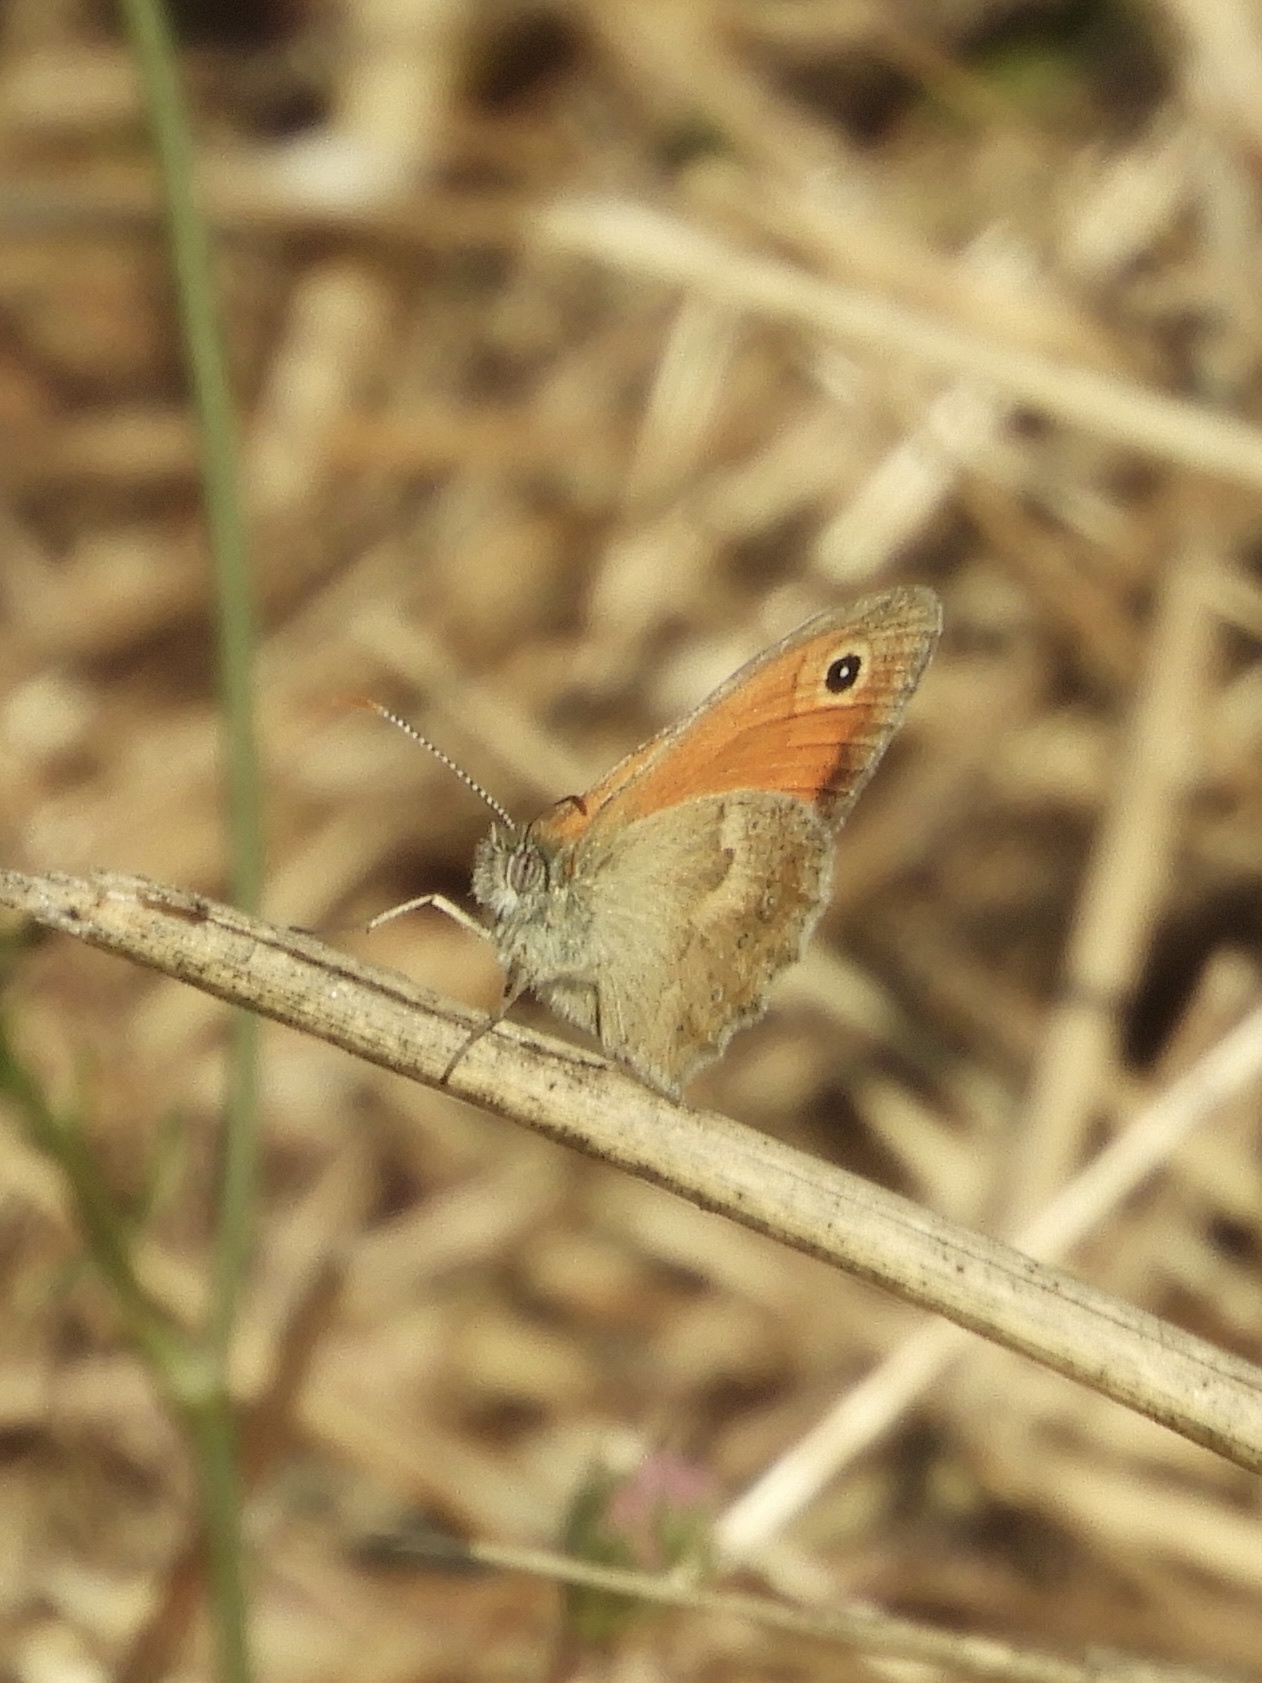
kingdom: Animalia
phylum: Arthropoda
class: Insecta
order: Lepidoptera
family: Nymphalidae
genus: Coenonympha
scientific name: Coenonympha pamphilus
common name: Small heath
